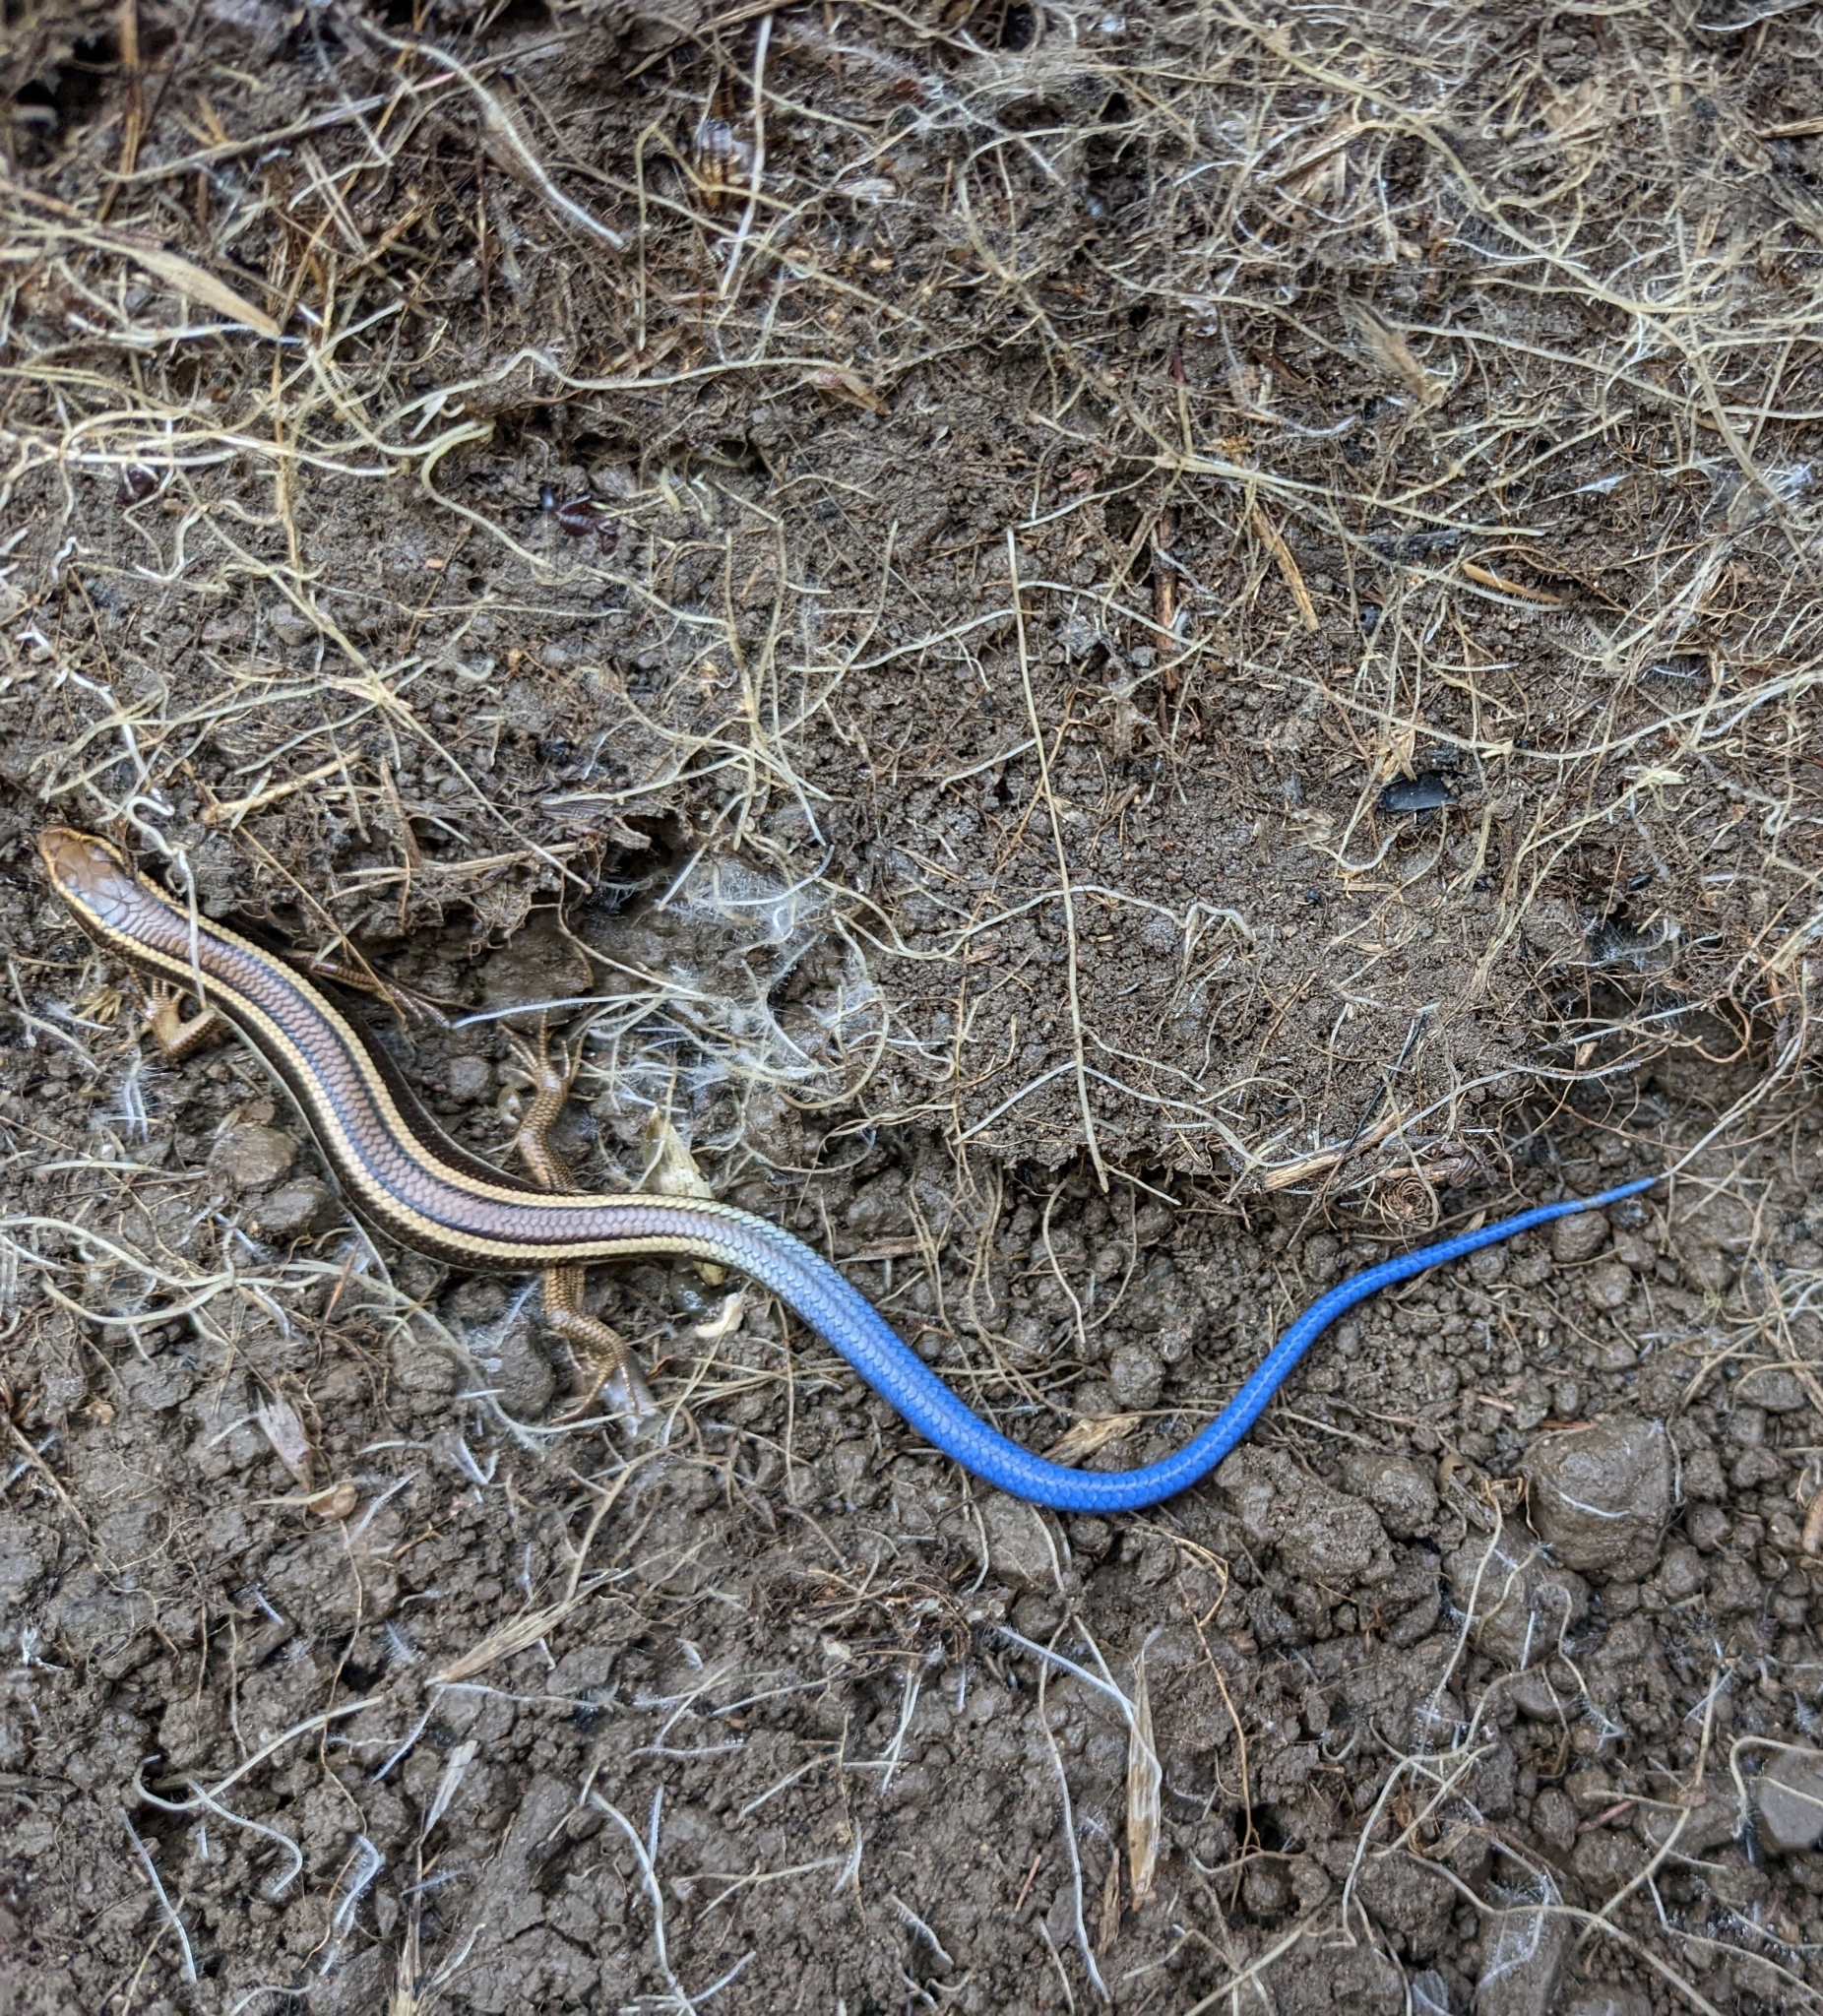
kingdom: Animalia
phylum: Chordata
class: Squamata
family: Scincidae
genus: Plestiodon
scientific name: Plestiodon skiltonianus
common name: Coronado island skink [interparietalis]
